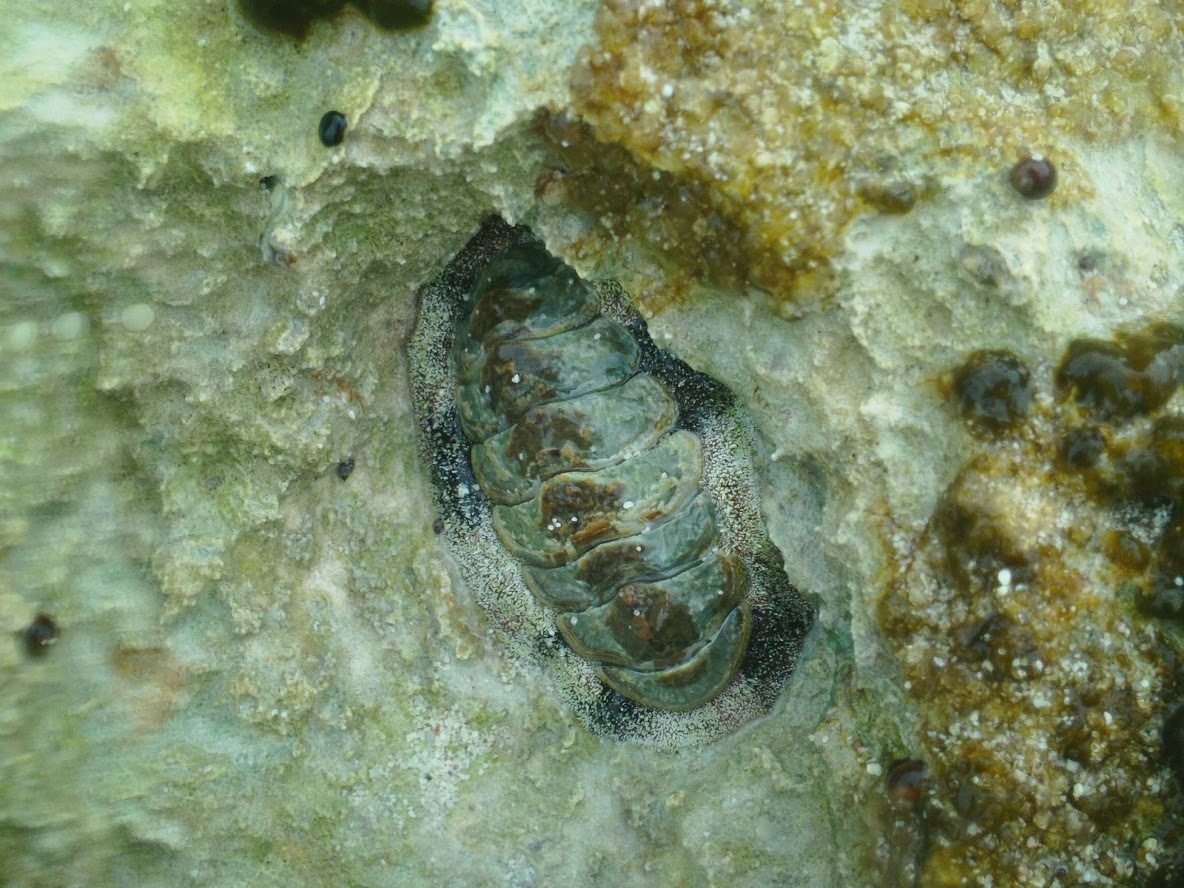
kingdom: Animalia
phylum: Mollusca
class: Polyplacophora
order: Chitonida
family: Chitonidae
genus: Acanthopleura
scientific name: Acanthopleura granulata
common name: West indian fuzzy chiton
